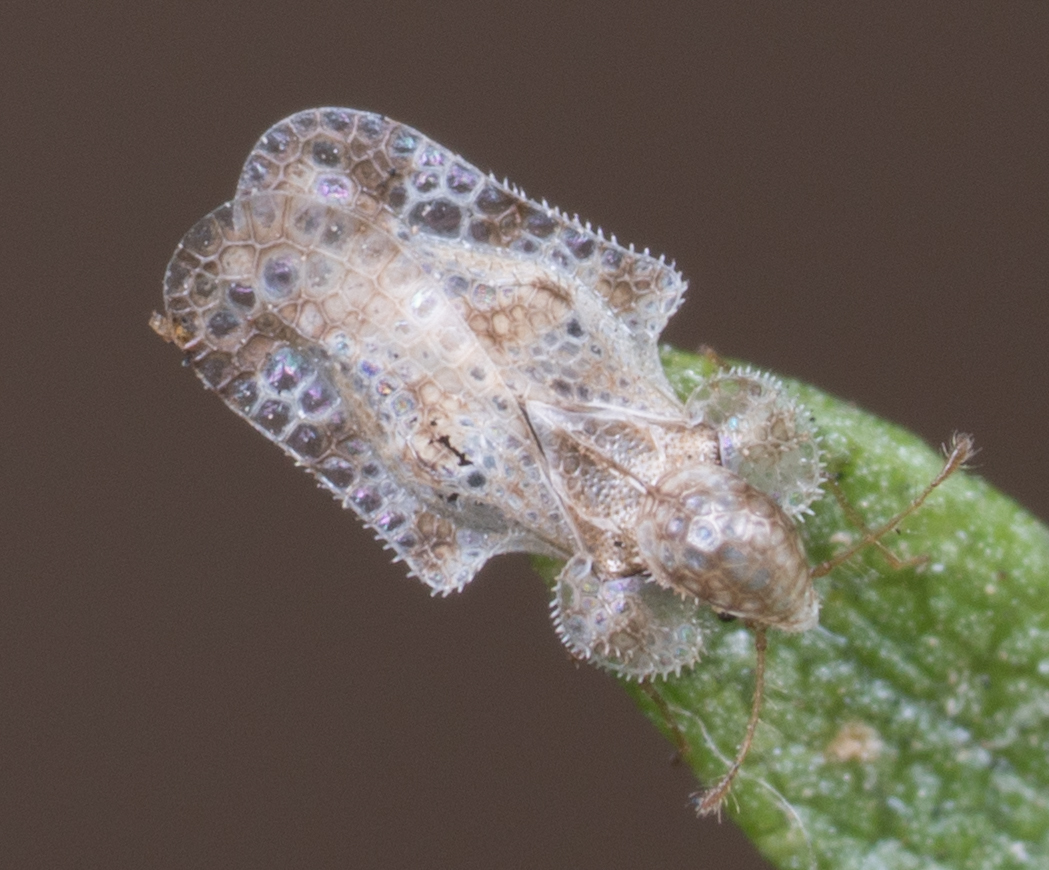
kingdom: Animalia
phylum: Arthropoda
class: Insecta
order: Hemiptera
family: Tingidae
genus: Corythucha
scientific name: Corythucha morrilli
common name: Morrill lace bug
